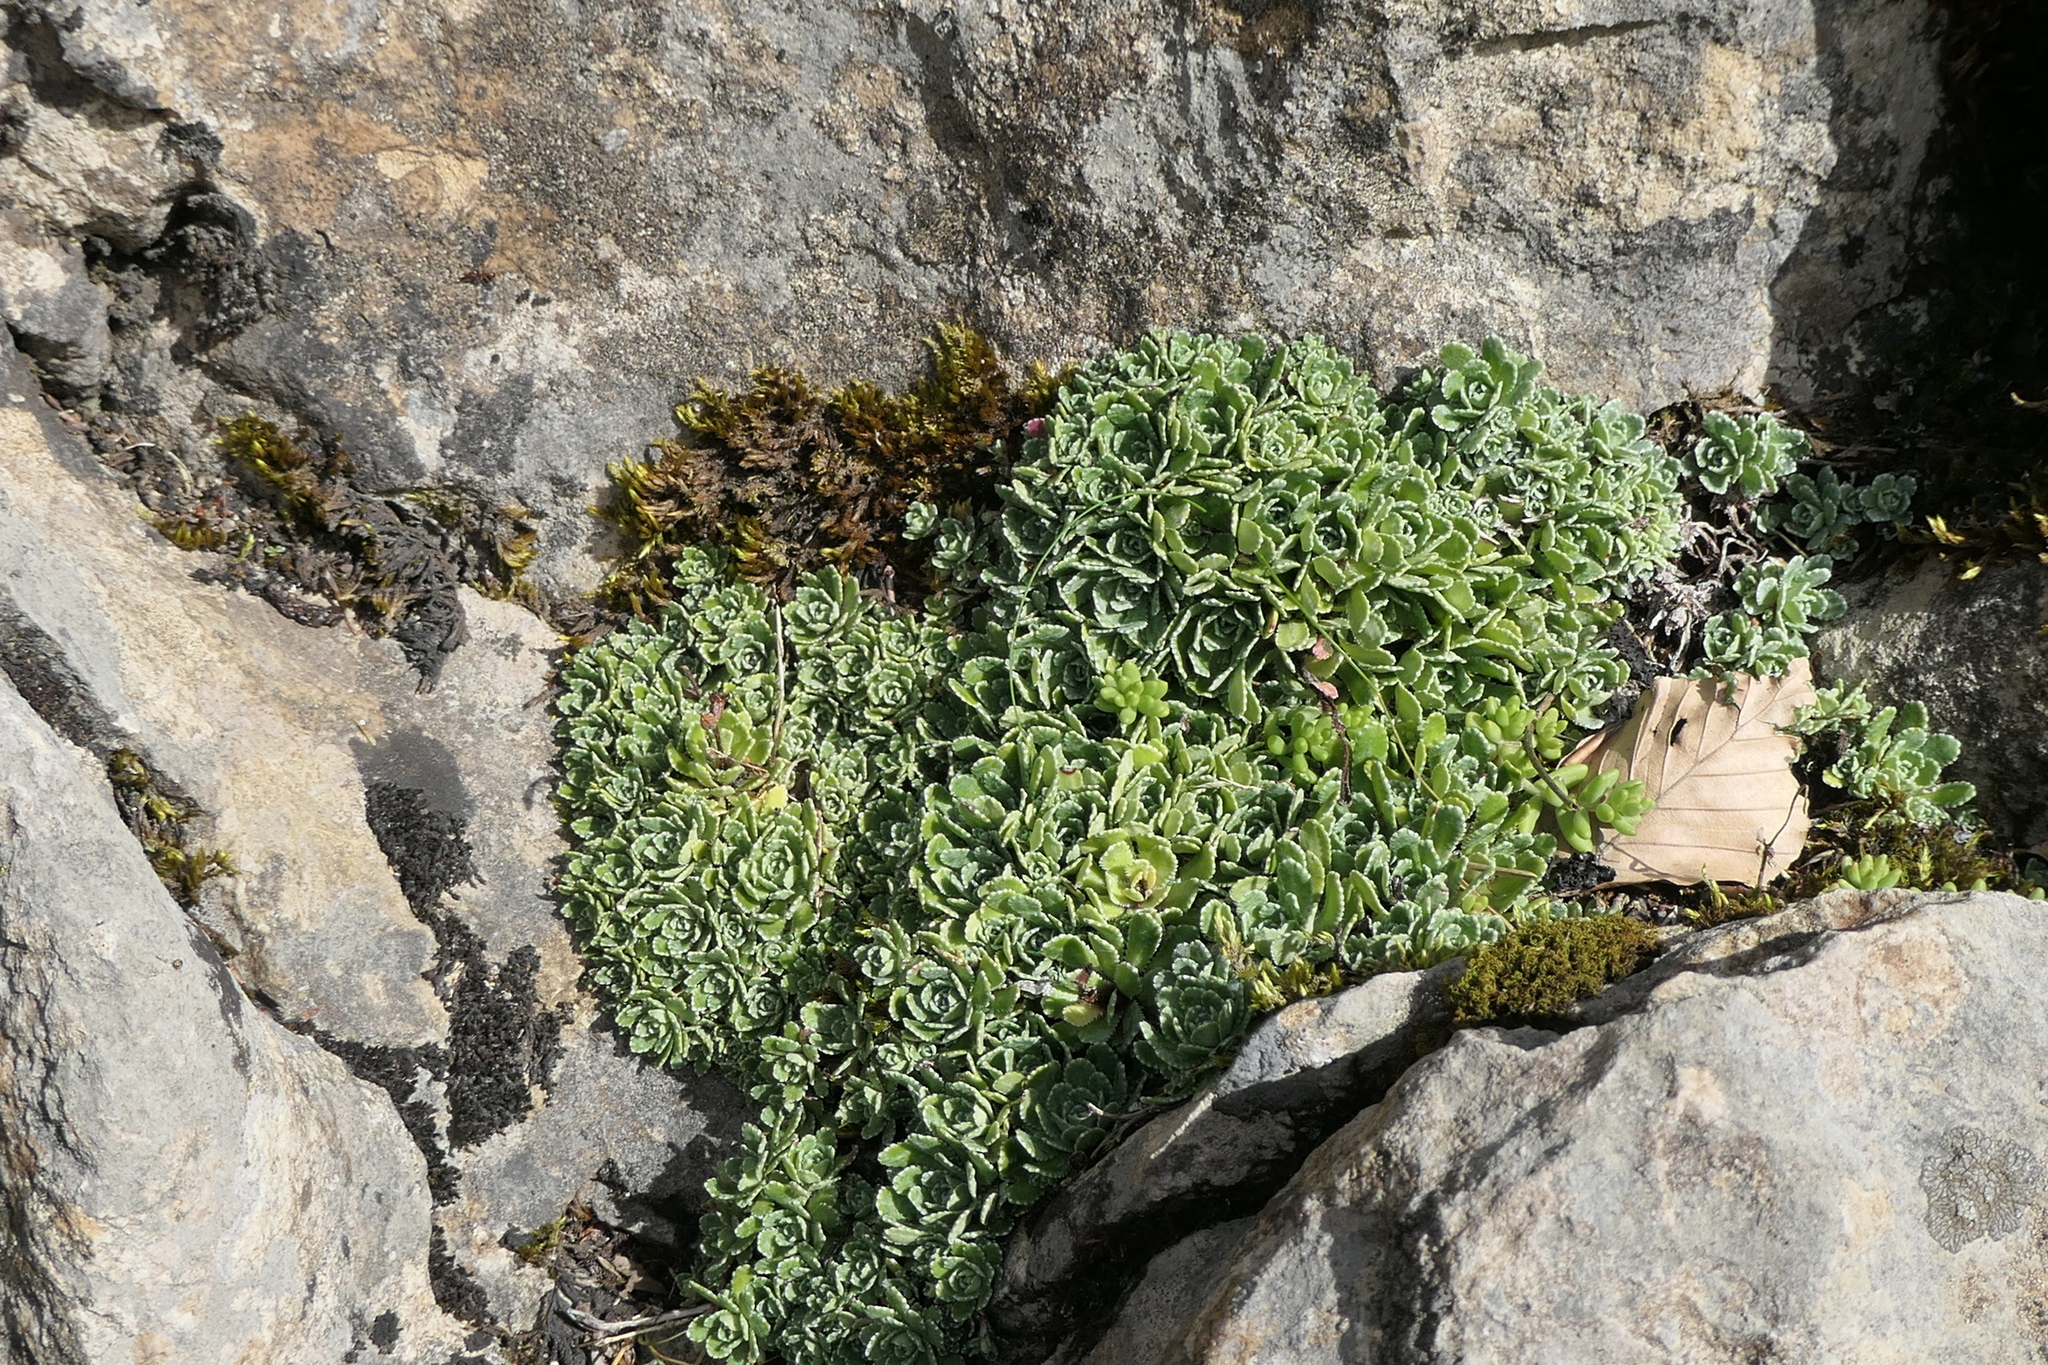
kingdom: Plantae
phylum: Tracheophyta
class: Magnoliopsida
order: Saxifragales
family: Saxifragaceae
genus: Saxifraga
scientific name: Saxifraga paniculata
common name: Livelong saxifrage
